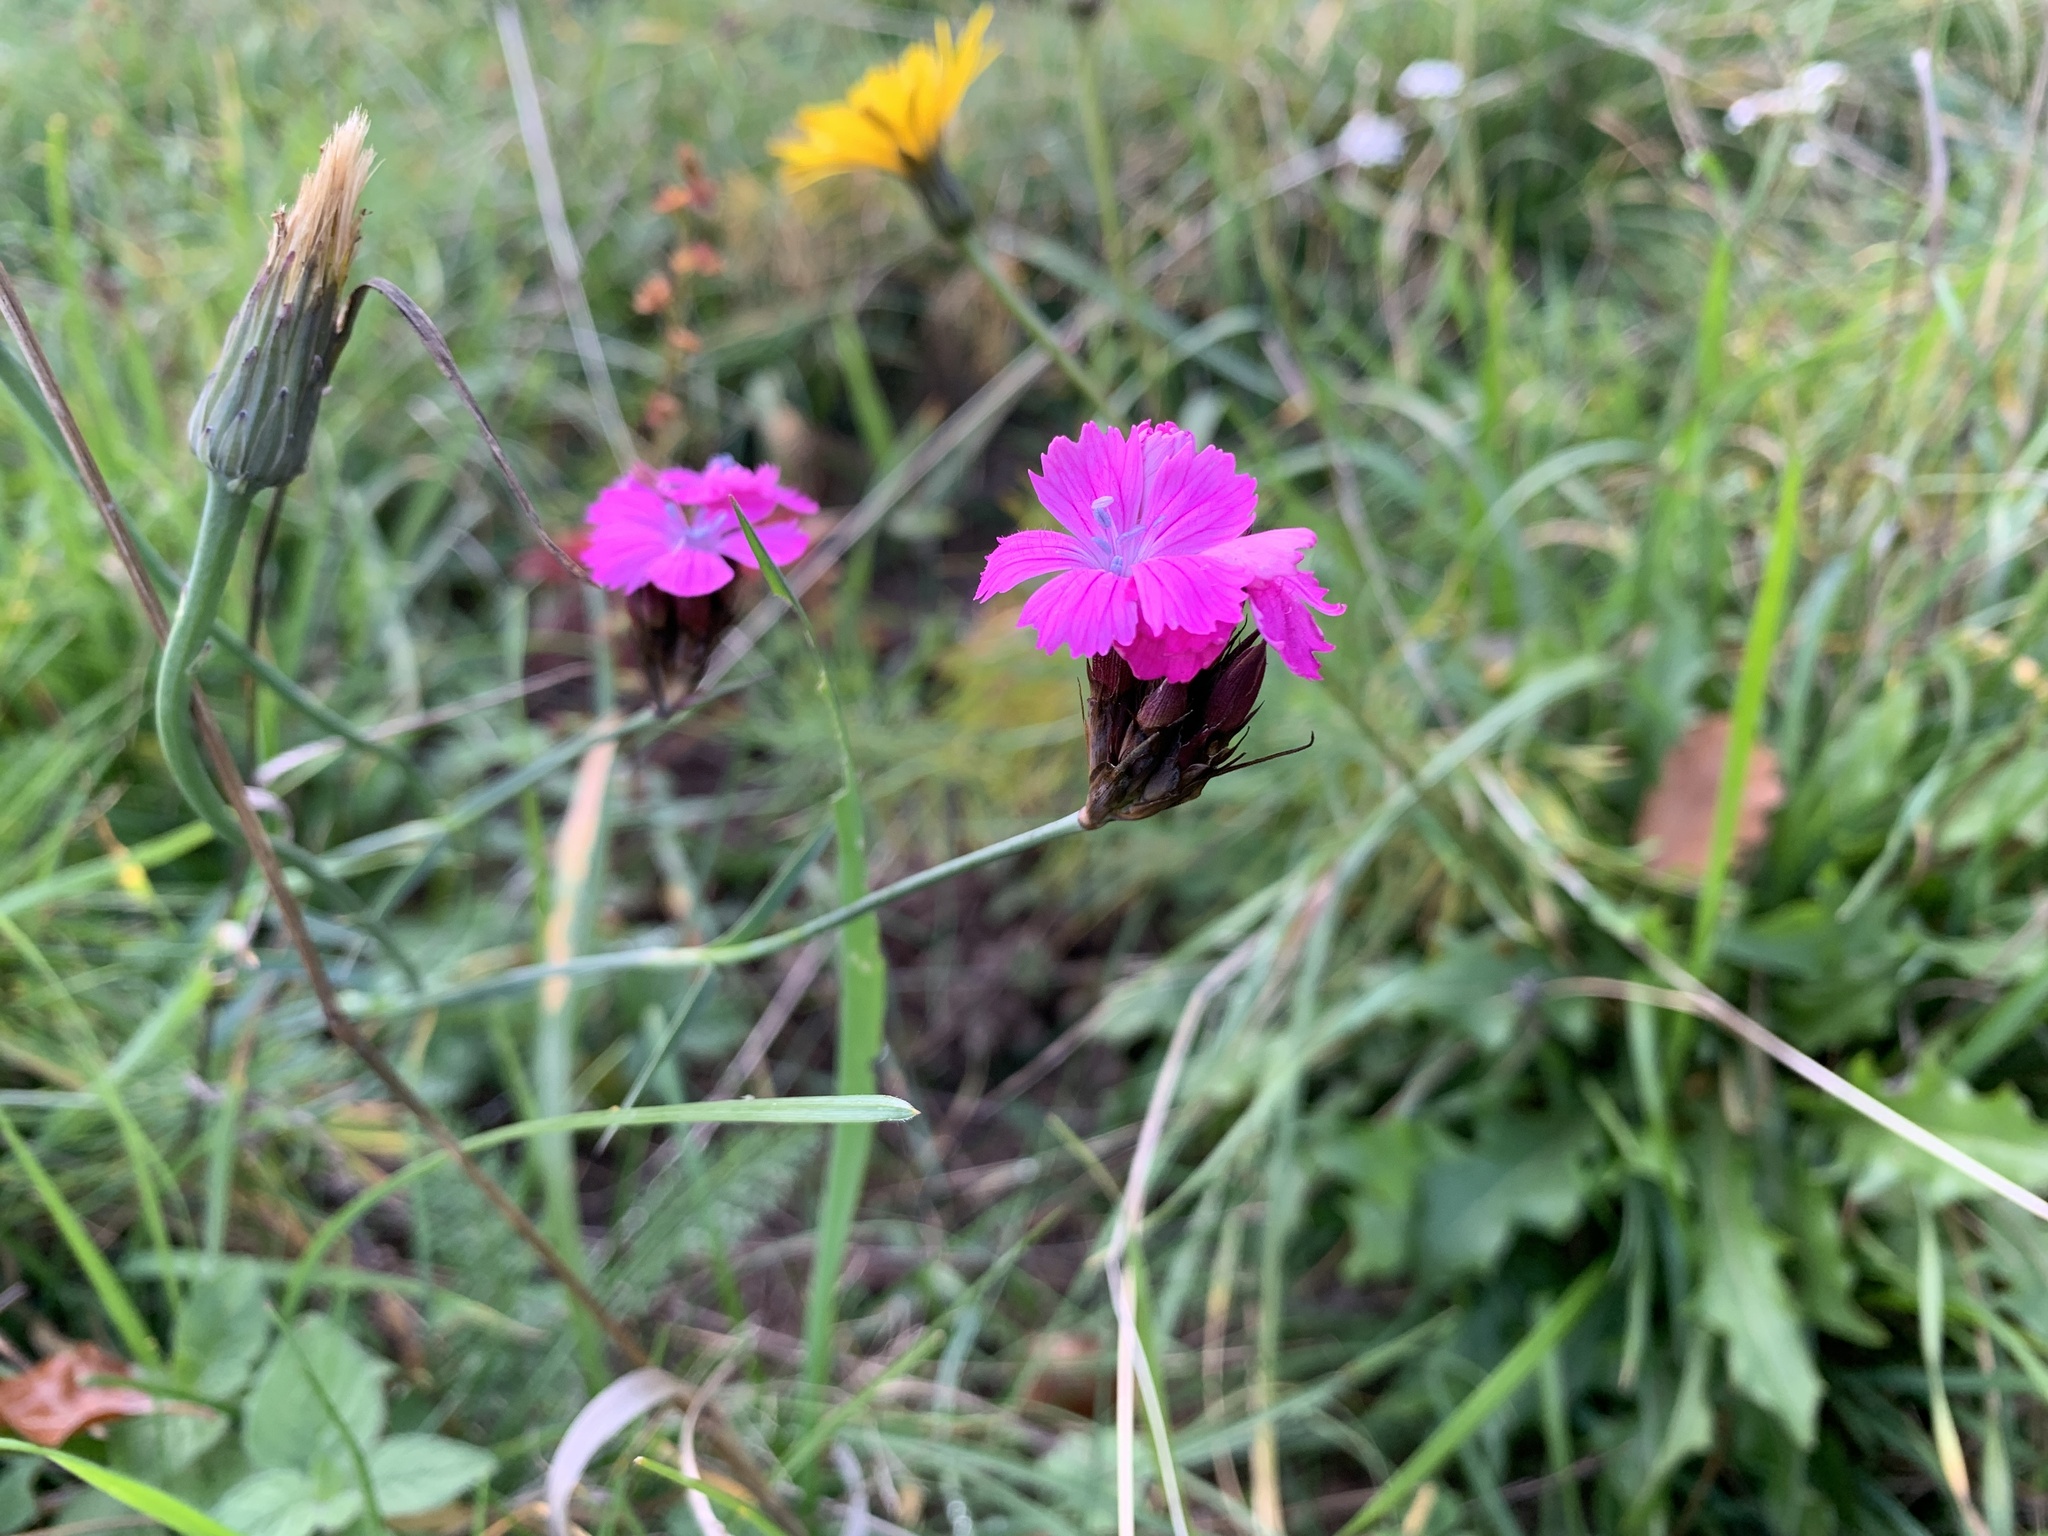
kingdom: Plantae
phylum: Tracheophyta
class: Magnoliopsida
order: Caryophyllales
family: Caryophyllaceae
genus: Dianthus
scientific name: Dianthus carthusianorum
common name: Carthusian pink
